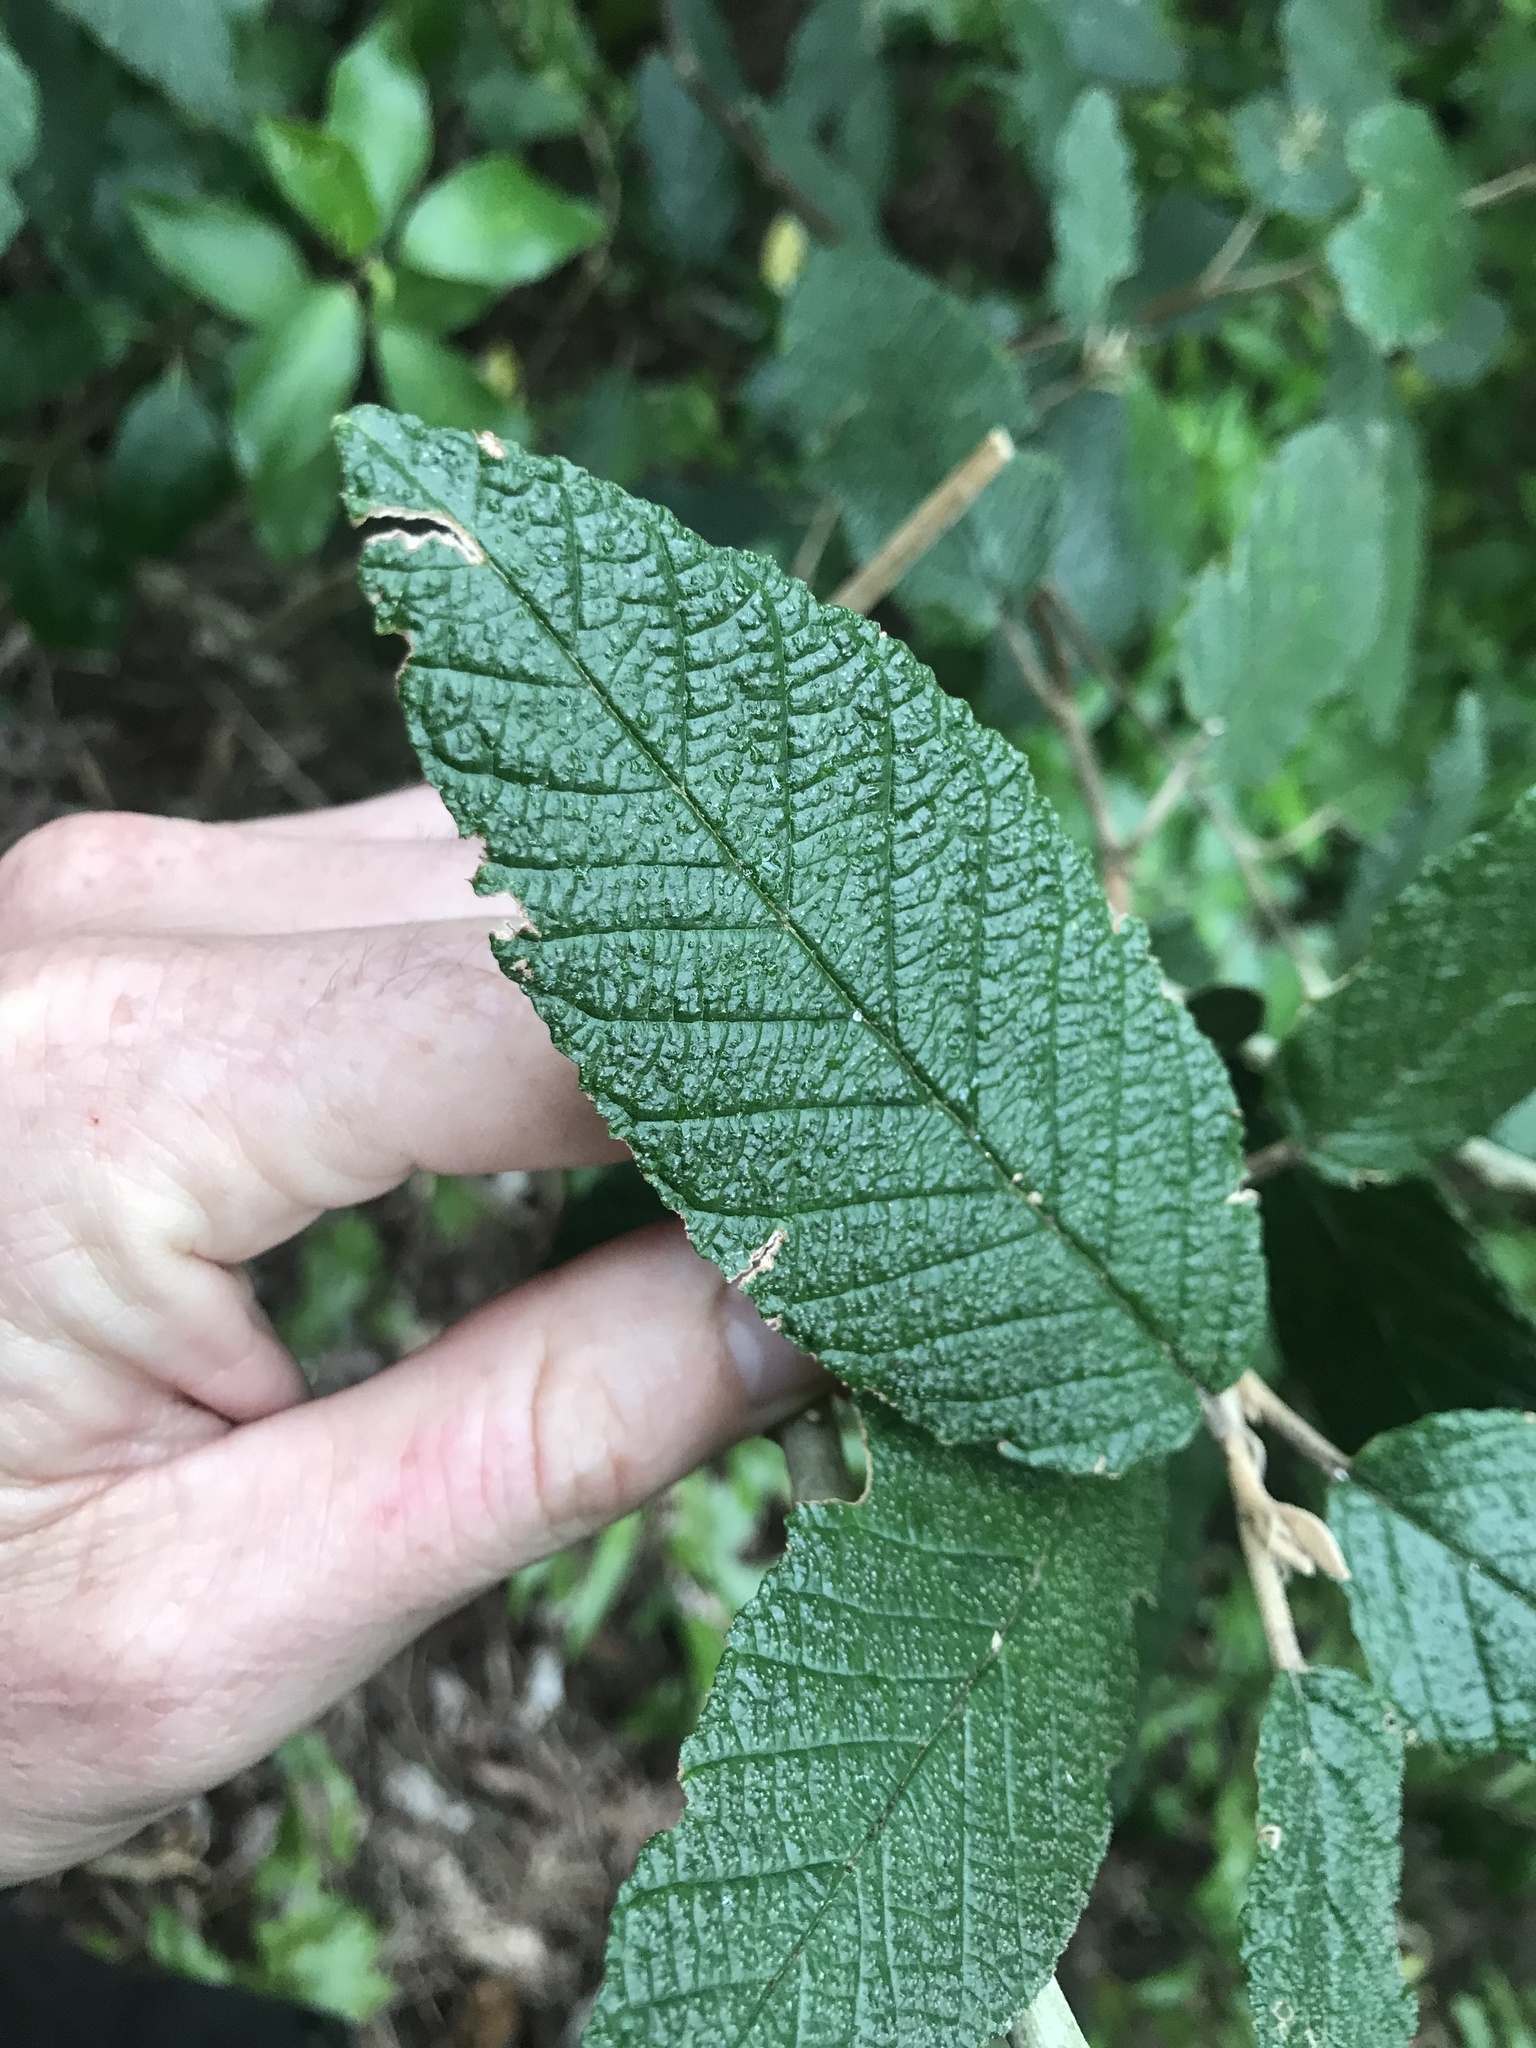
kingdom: Plantae
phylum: Tracheophyta
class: Magnoliopsida
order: Rosales
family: Rhamnaceae
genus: Pomaderris
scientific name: Pomaderris apetala
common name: Hazel pomaderris
